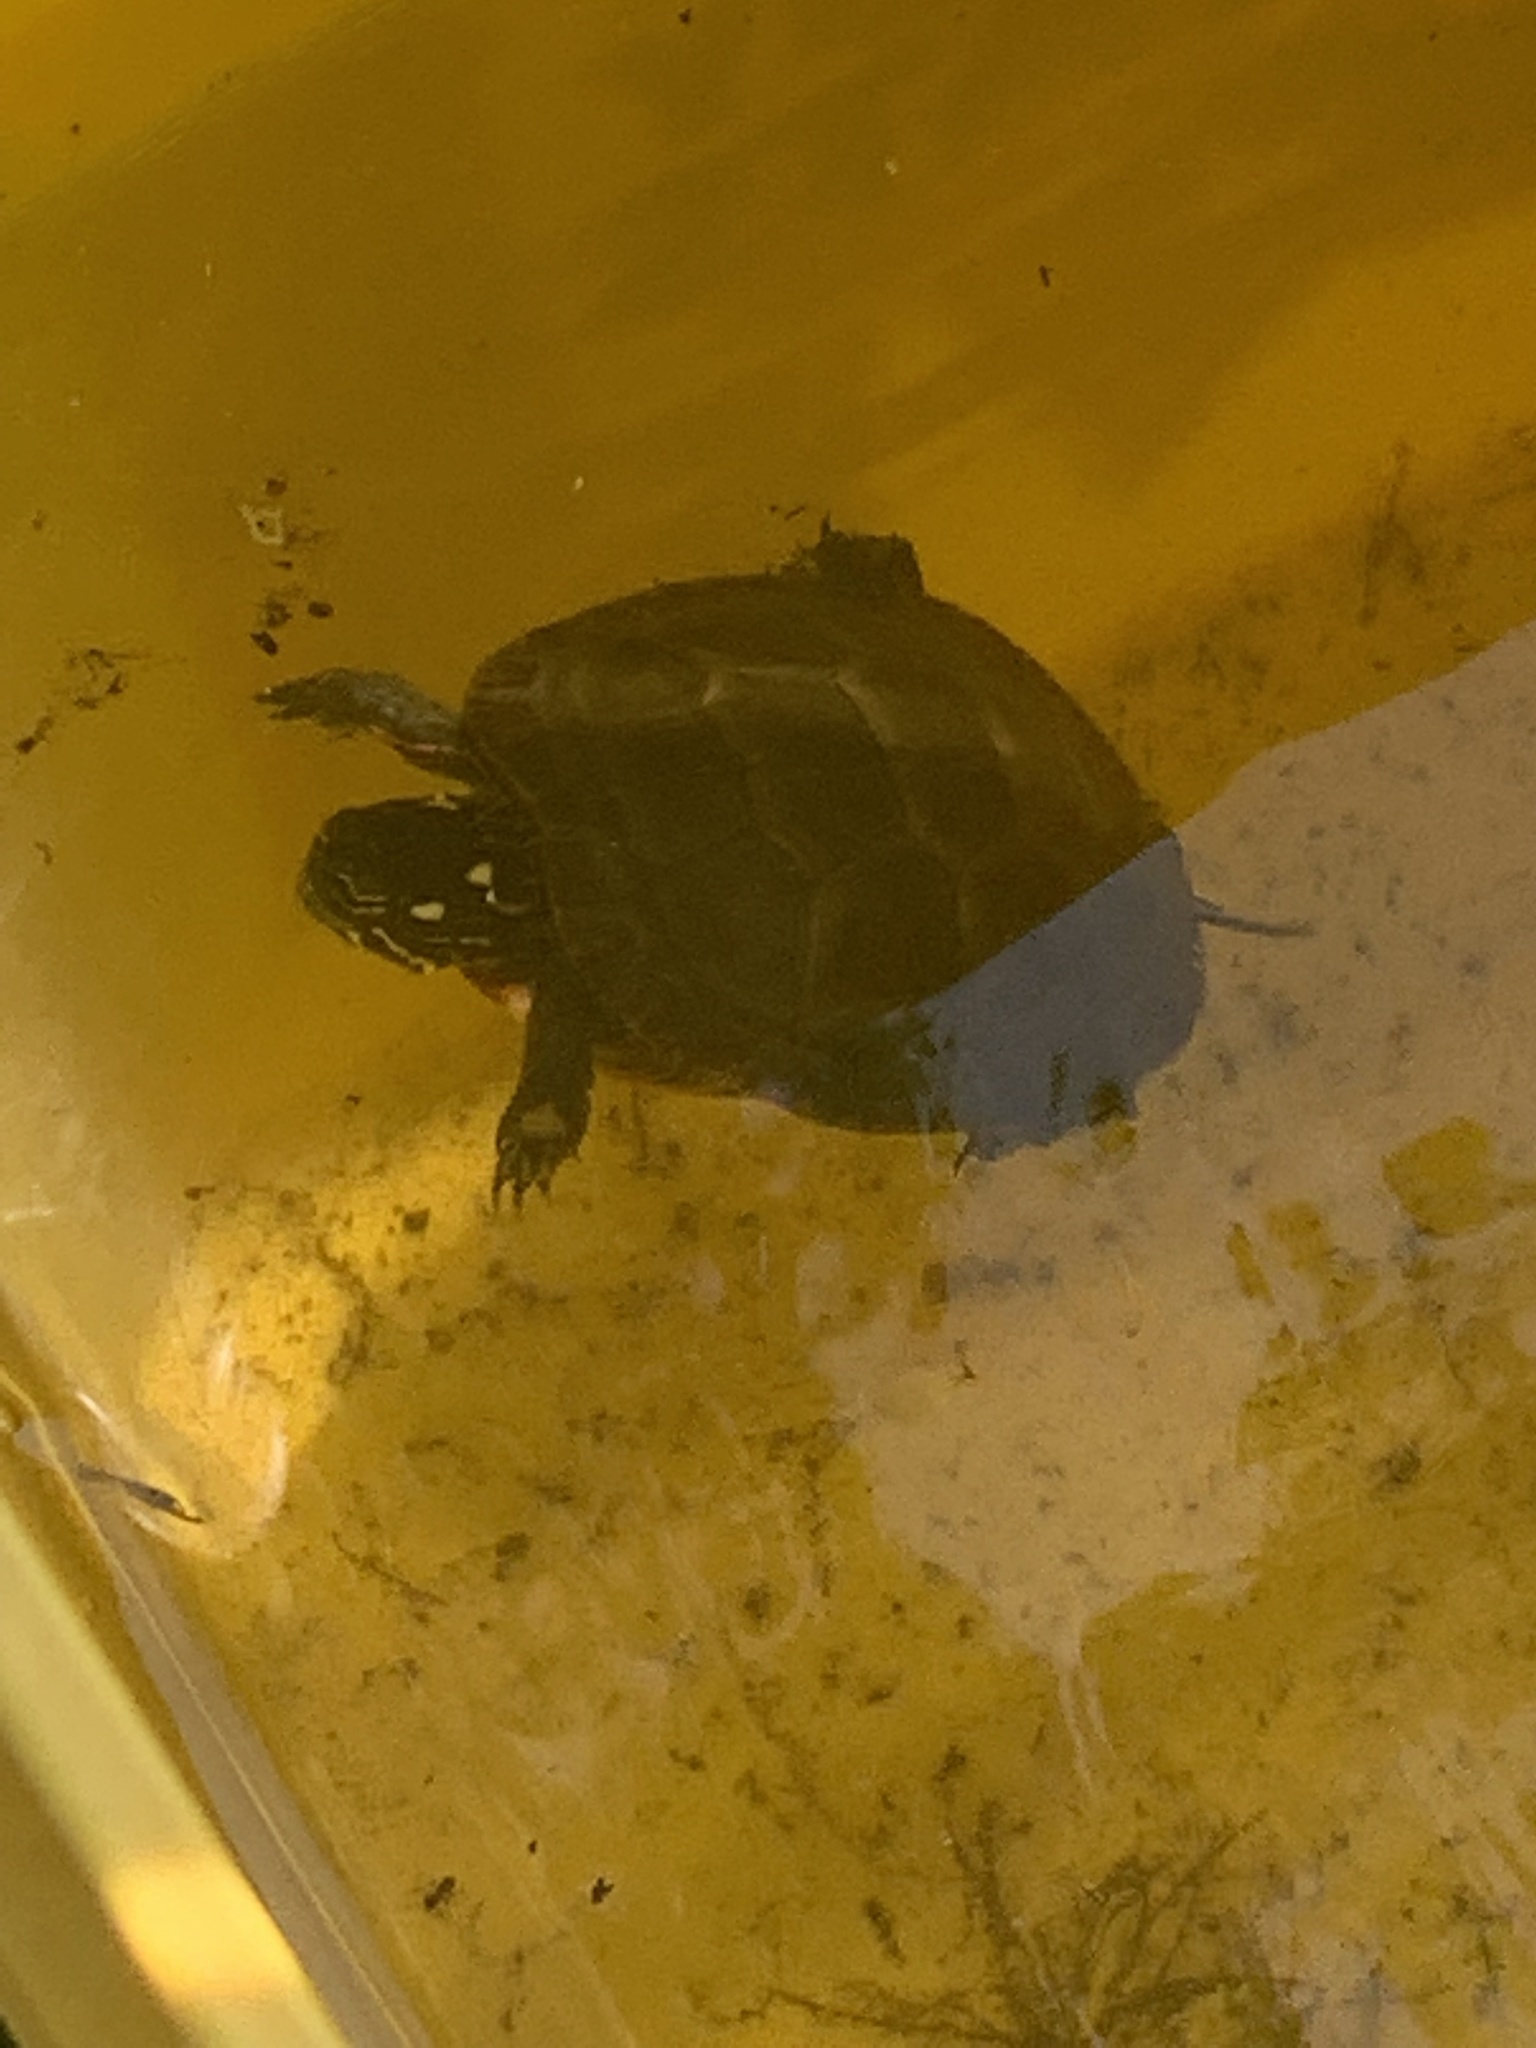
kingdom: Animalia
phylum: Chordata
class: Testudines
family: Emydidae
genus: Chrysemys
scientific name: Chrysemys picta
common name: Painted turtle
